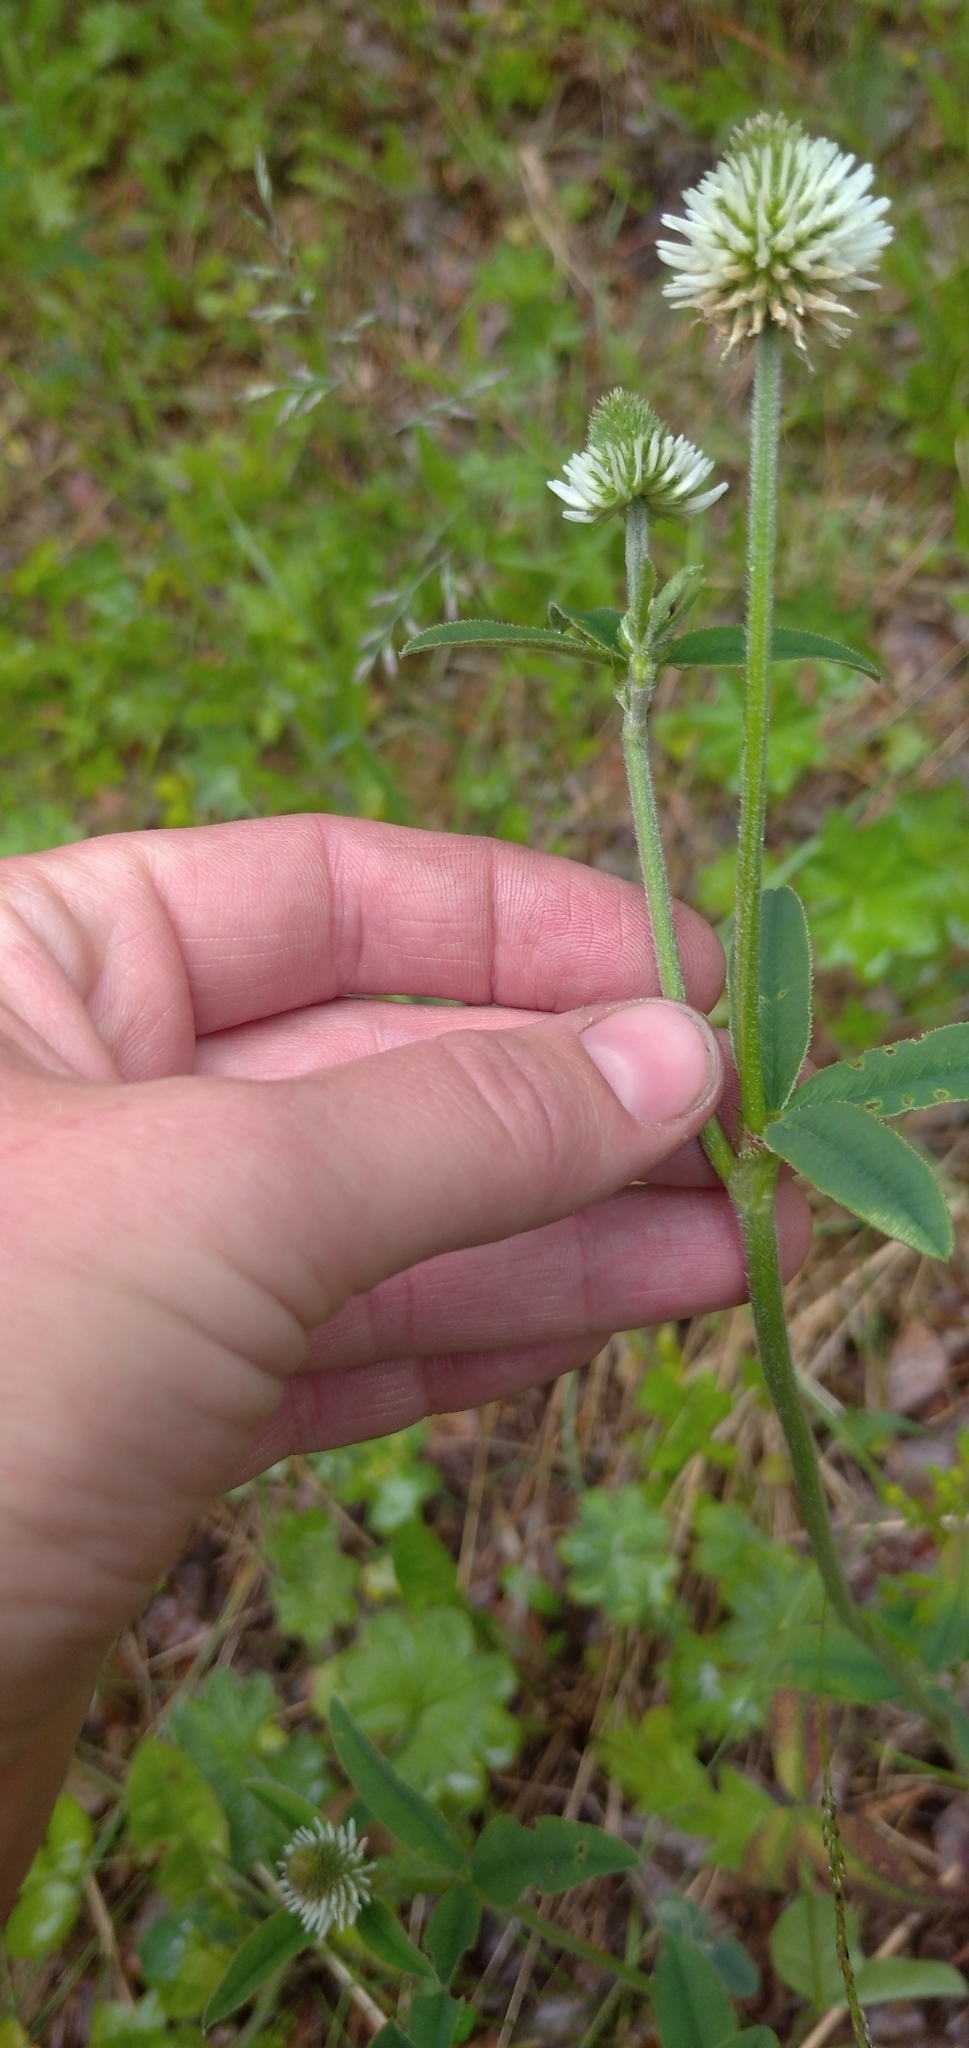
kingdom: Plantae
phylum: Tracheophyta
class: Magnoliopsida
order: Fabales
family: Fabaceae
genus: Trifolium
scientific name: Trifolium montanum
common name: Mountain clover
